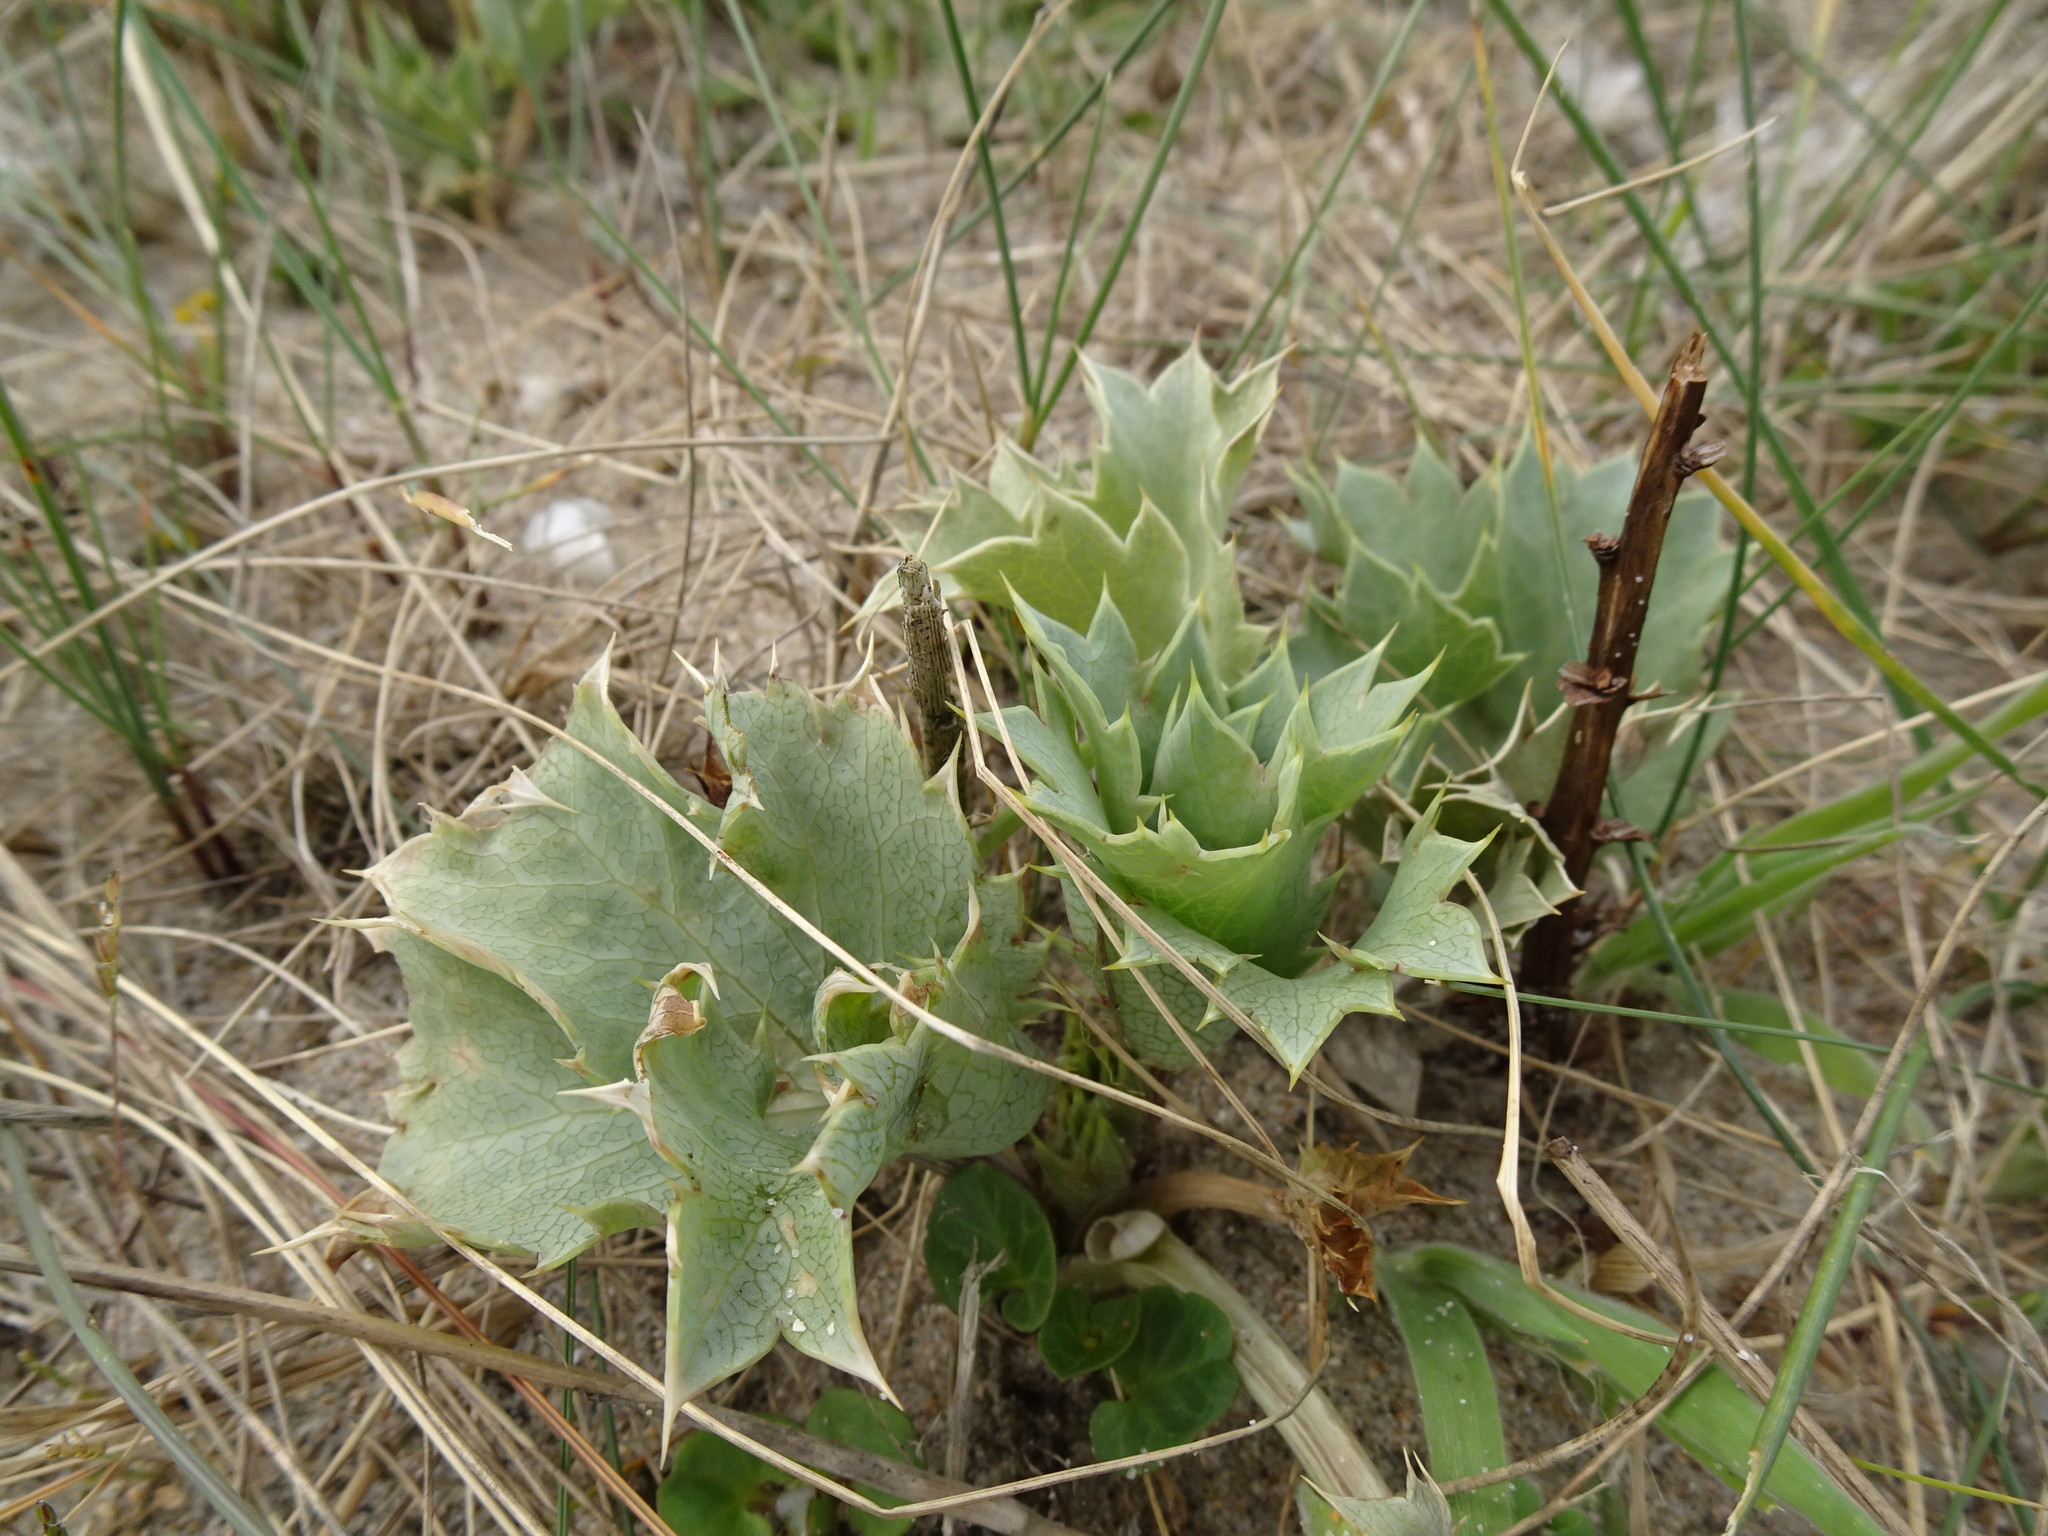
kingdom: Plantae
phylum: Tracheophyta
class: Magnoliopsida
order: Apiales
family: Apiaceae
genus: Eryngium
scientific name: Eryngium maritimum
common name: Sea-holly
